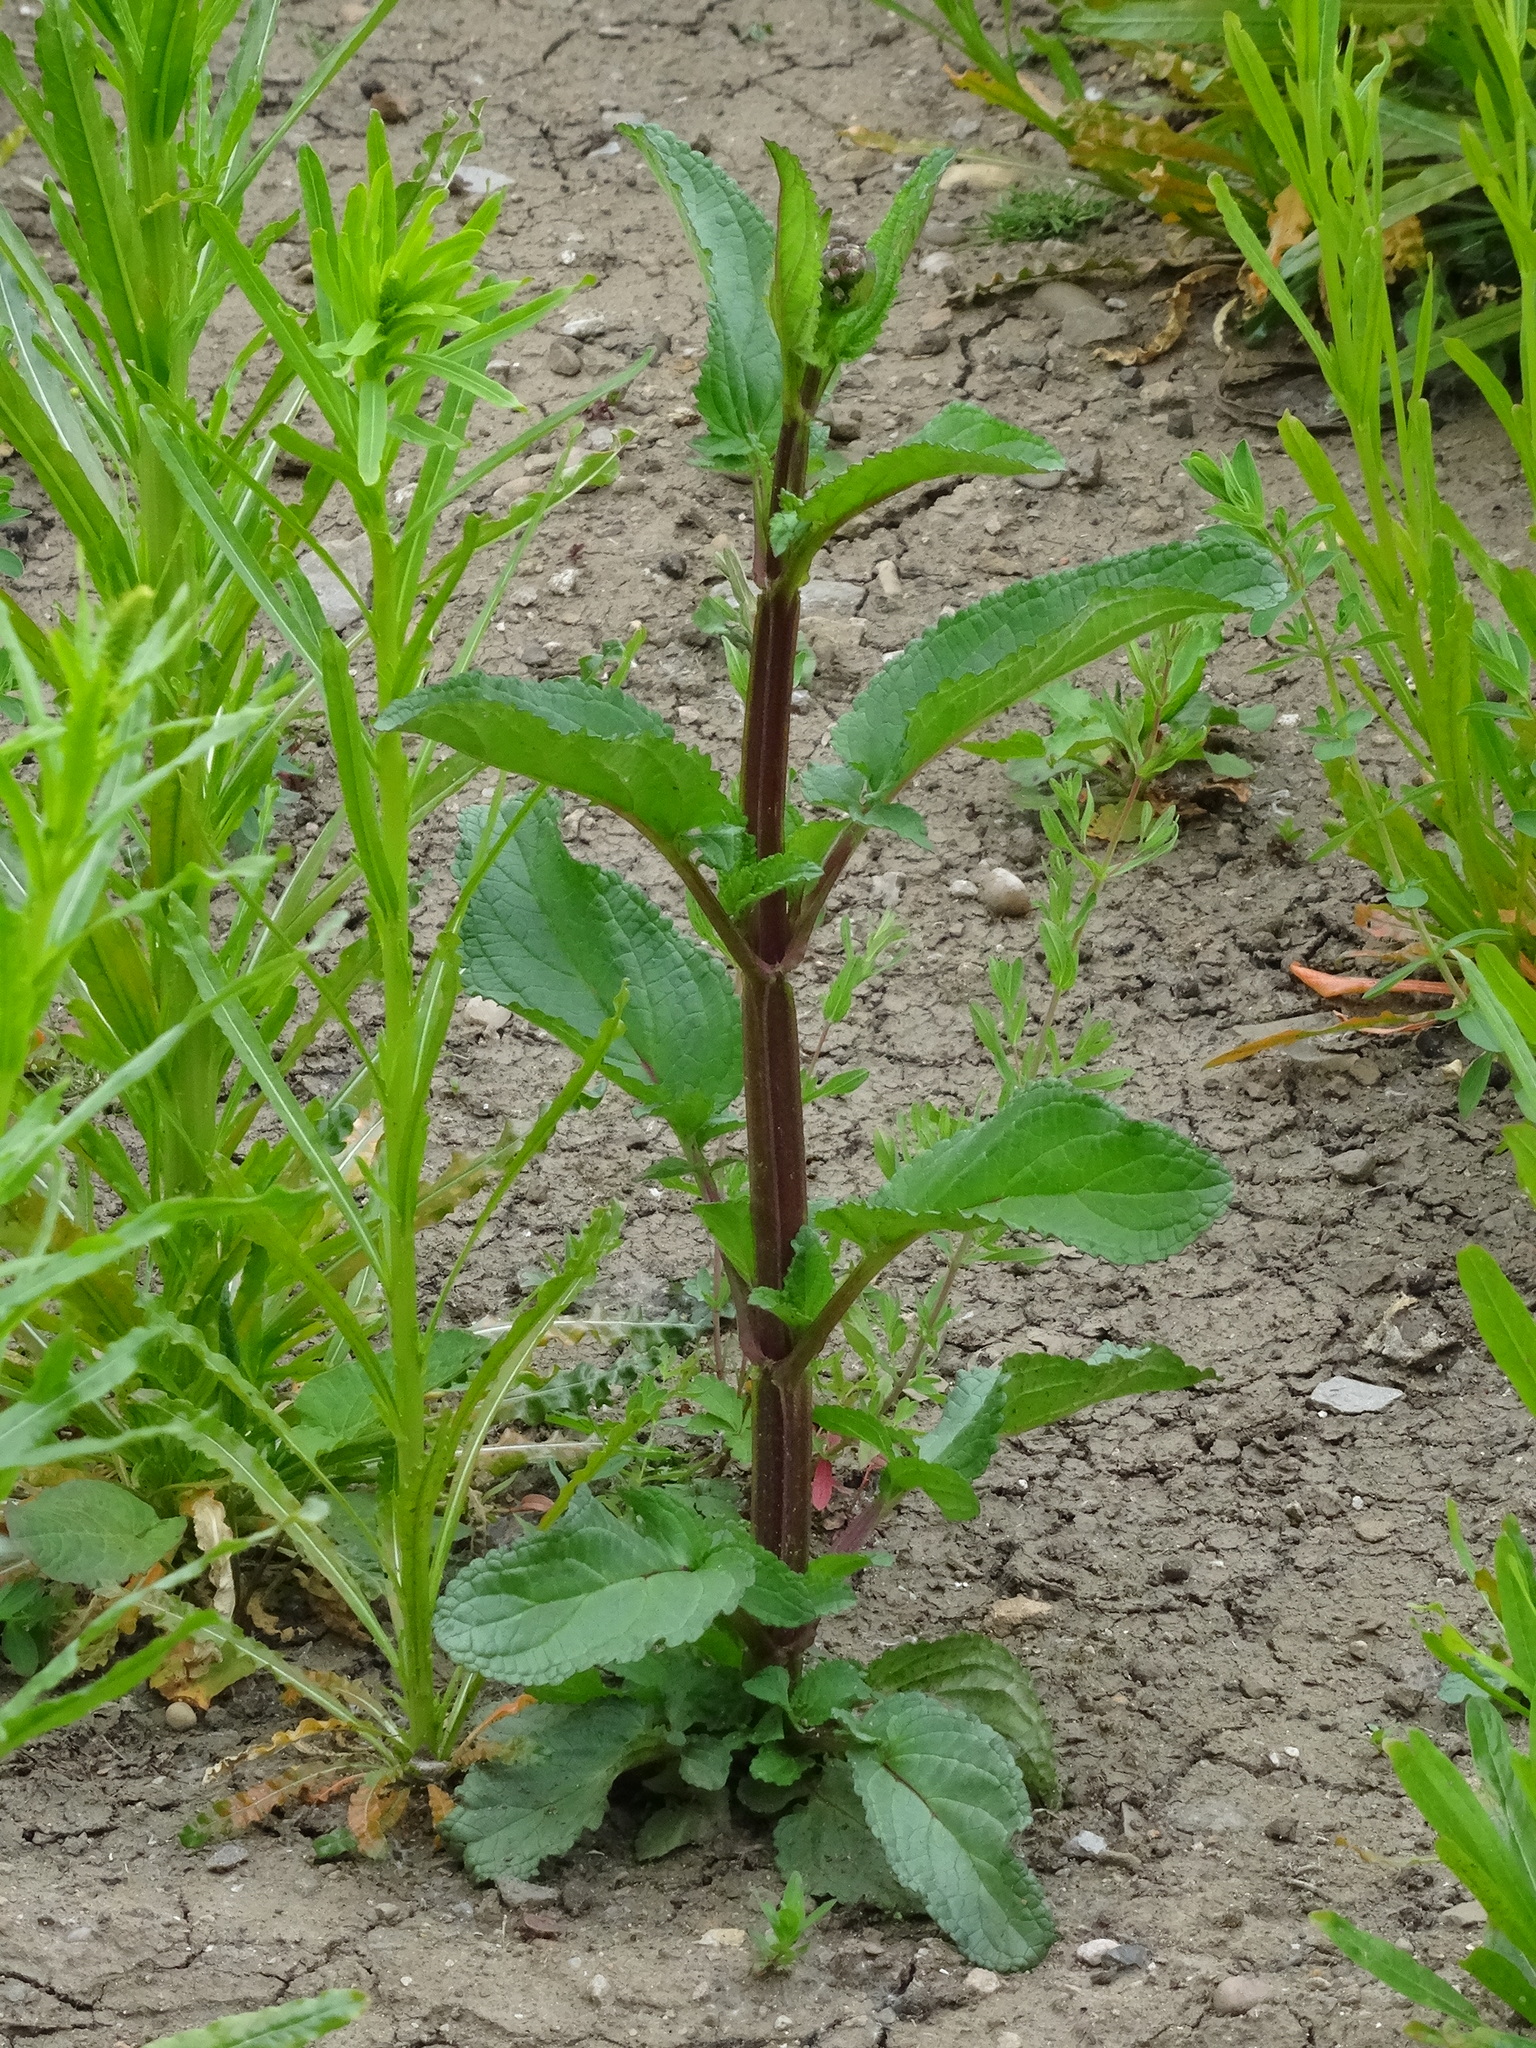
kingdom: Plantae
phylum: Tracheophyta
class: Magnoliopsida
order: Lamiales
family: Scrophulariaceae
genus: Scrophularia
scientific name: Scrophularia auriculata
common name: Water betony
